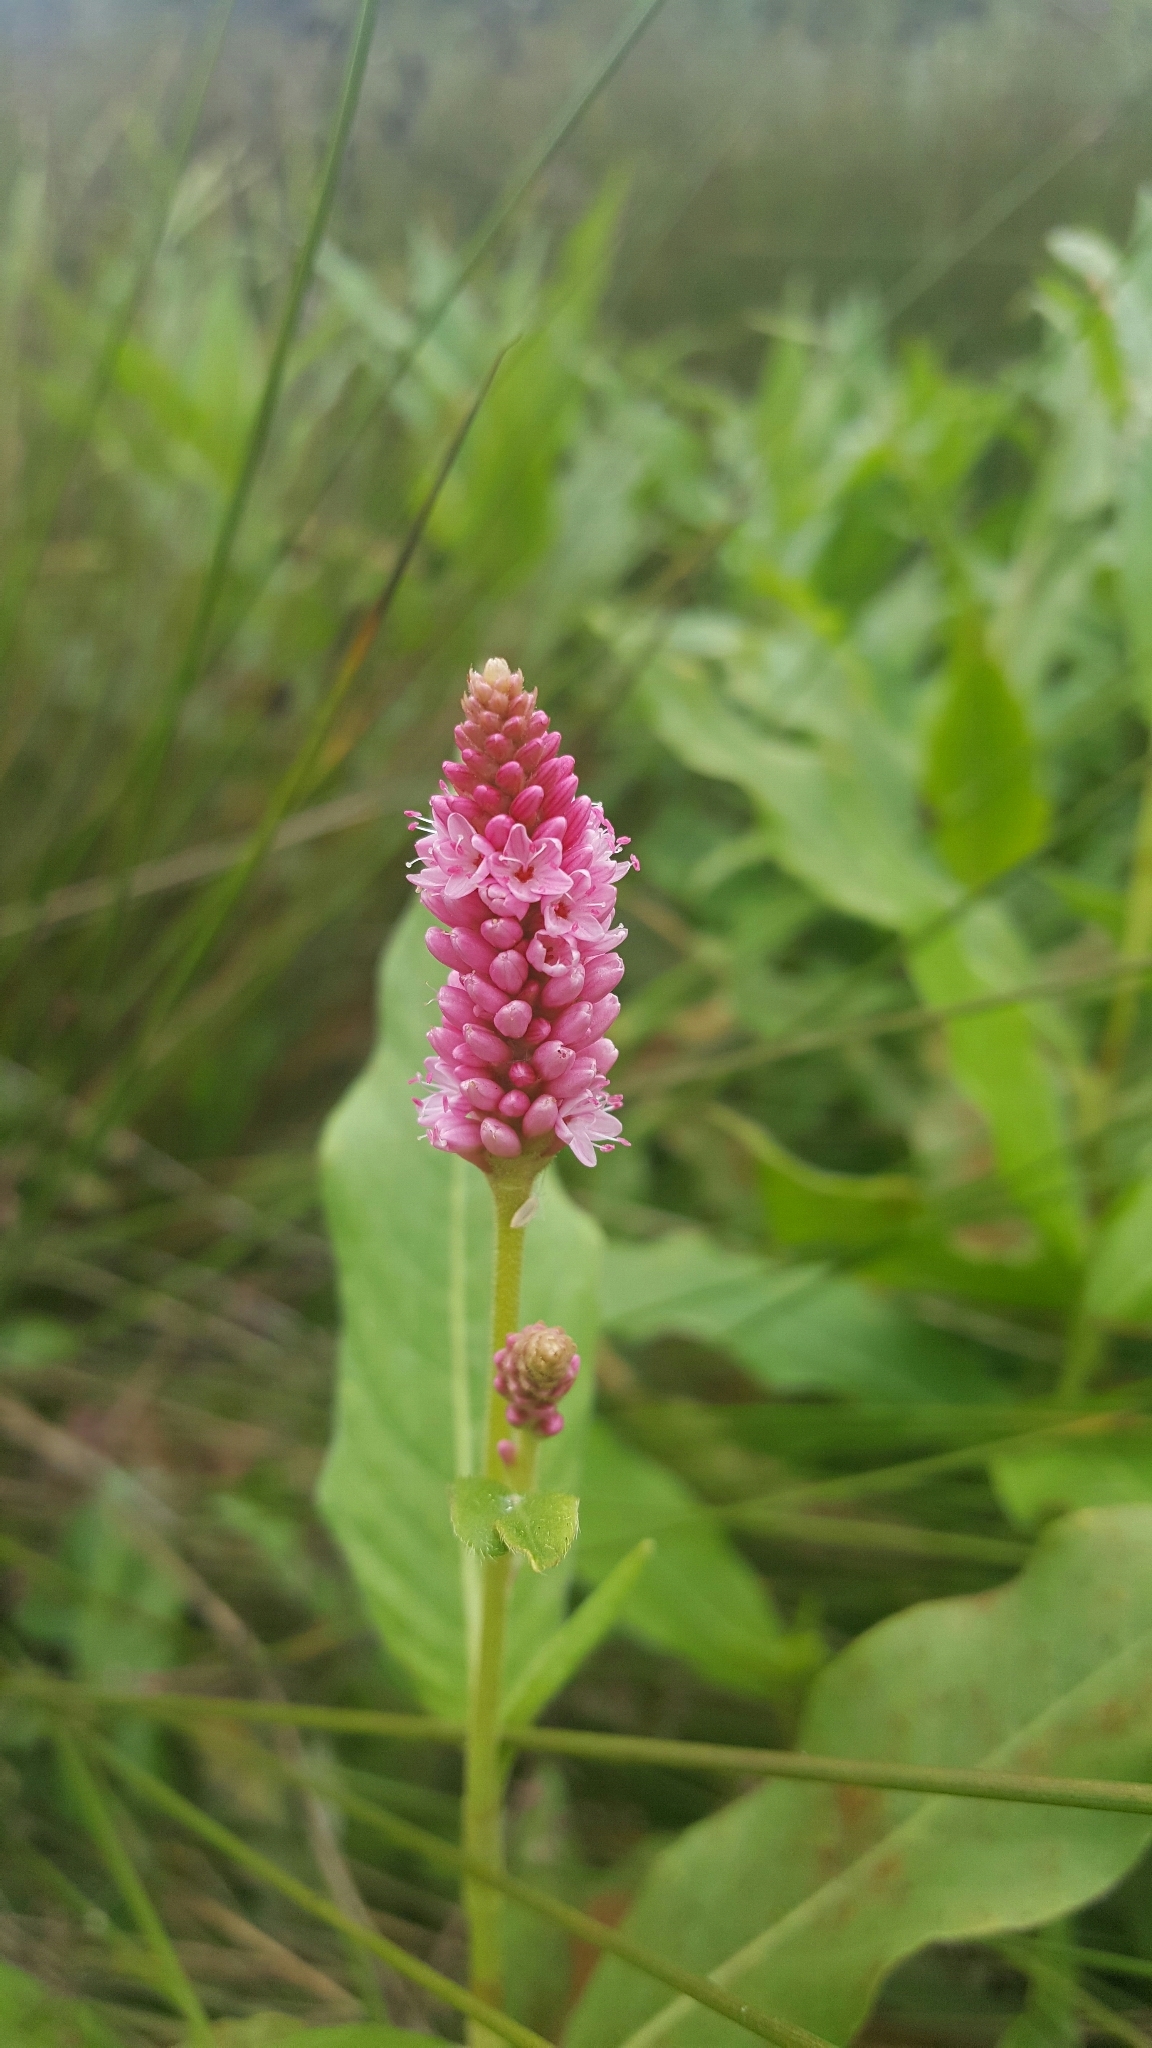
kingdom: Plantae
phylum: Tracheophyta
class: Magnoliopsida
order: Caryophyllales
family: Polygonaceae
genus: Persicaria
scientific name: Persicaria amphibia
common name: Amphibious bistort
